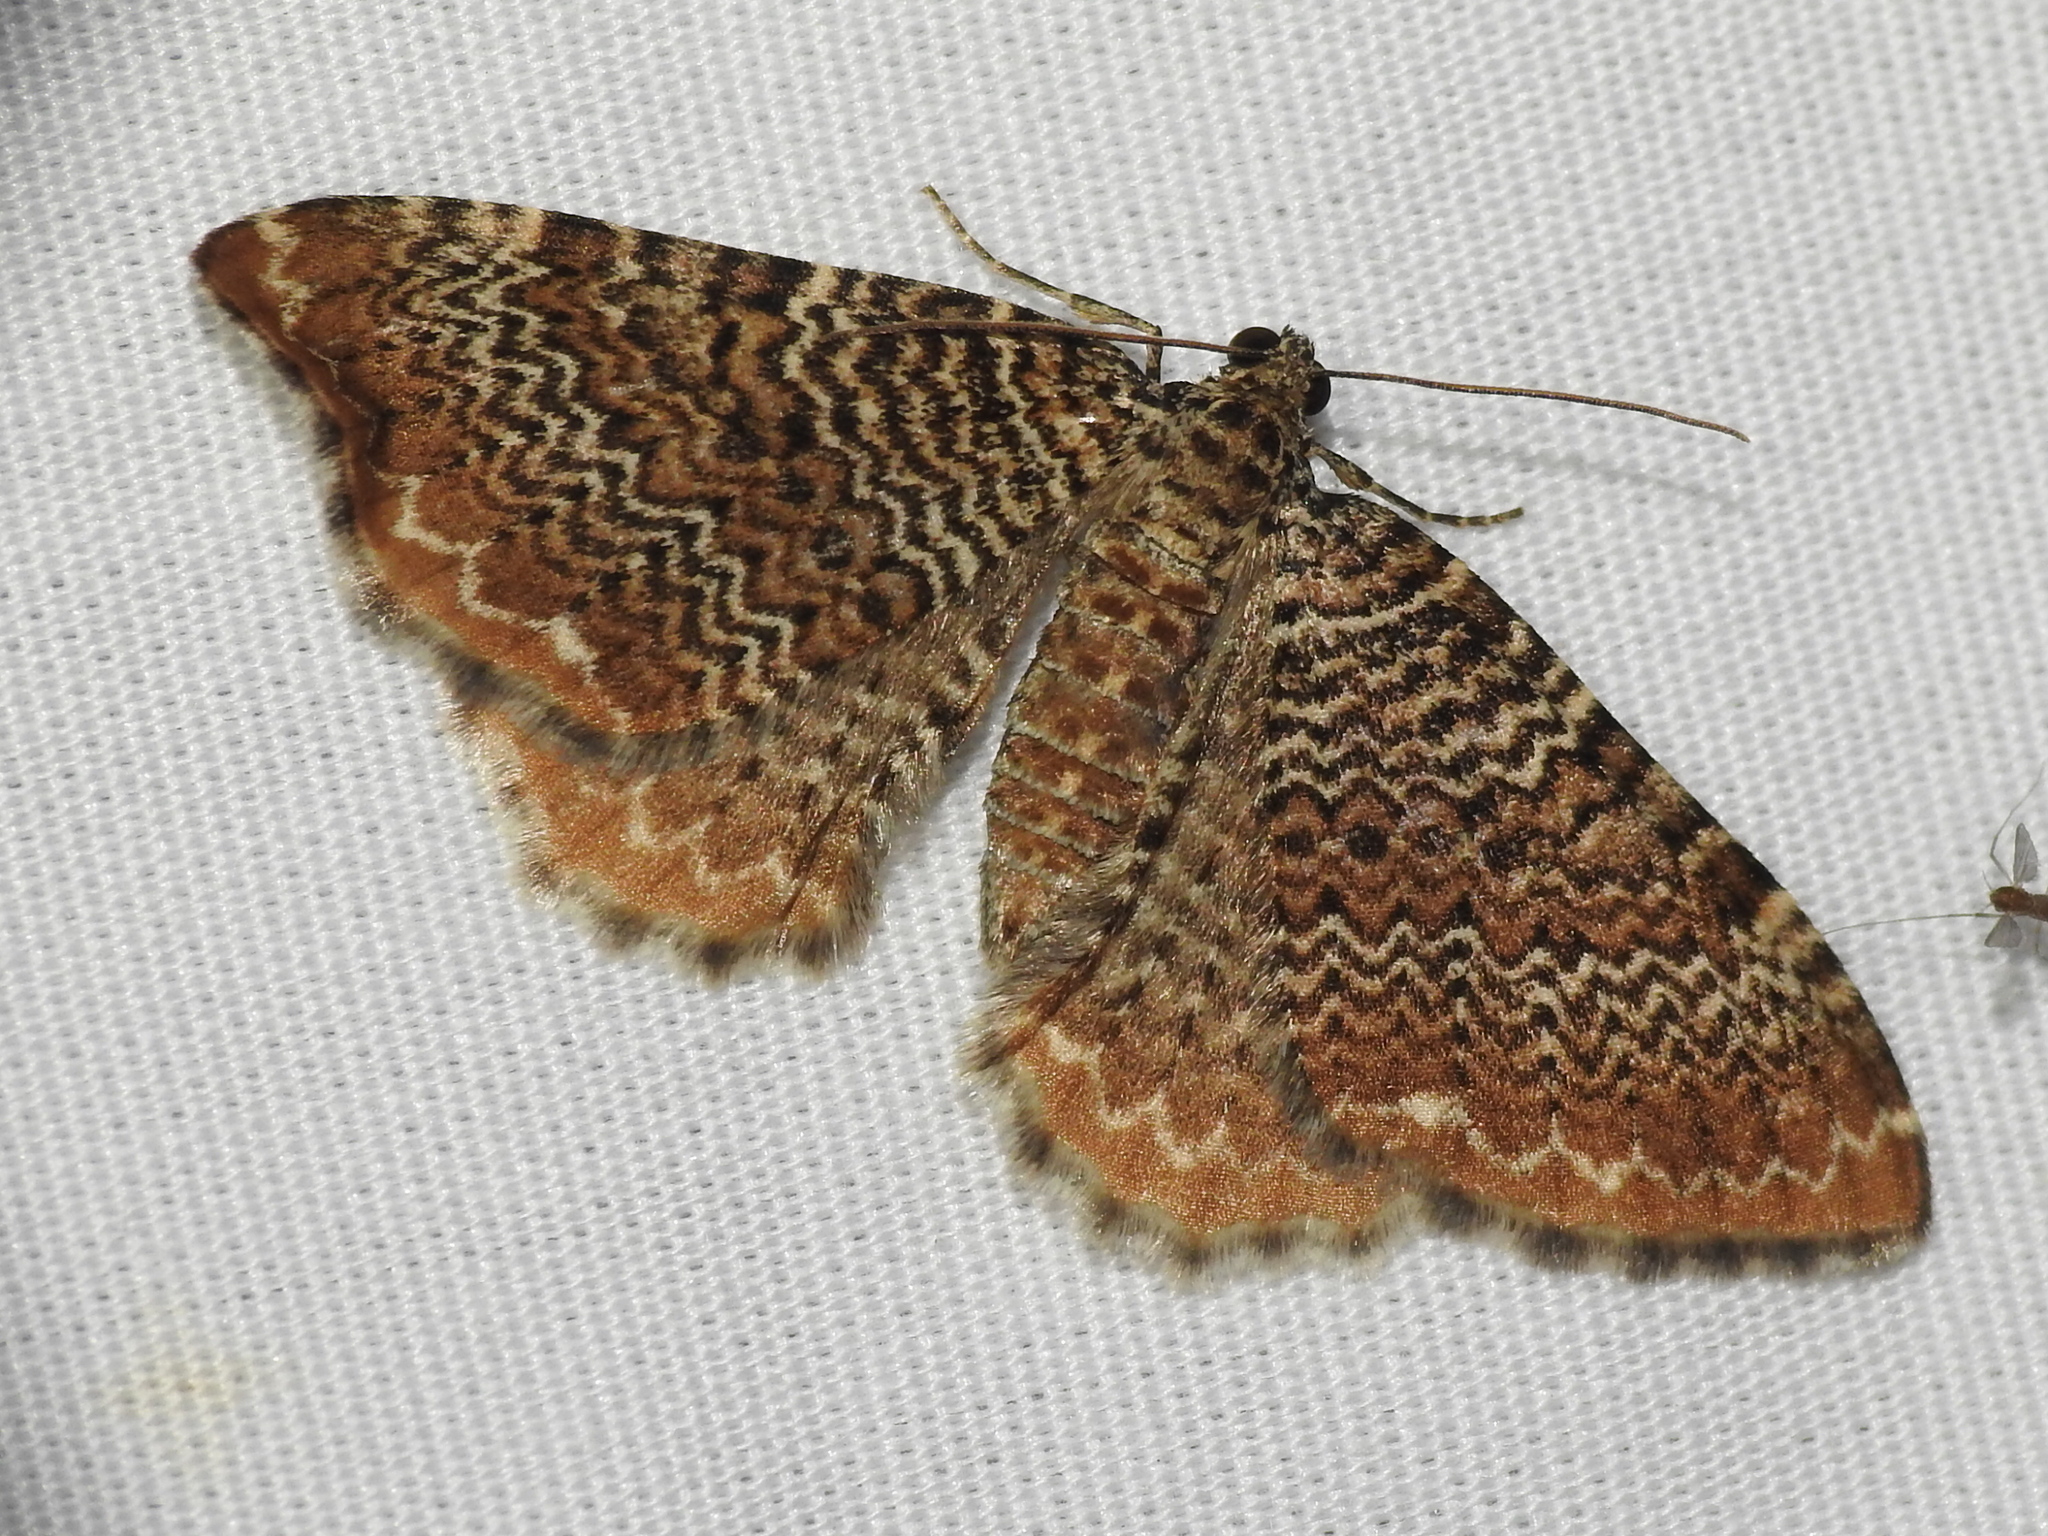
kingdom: Animalia
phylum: Arthropoda
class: Insecta
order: Lepidoptera
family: Geometridae
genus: Rheumaptera
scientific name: Rheumaptera prunivorata
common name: Cherry scallop shell moth
